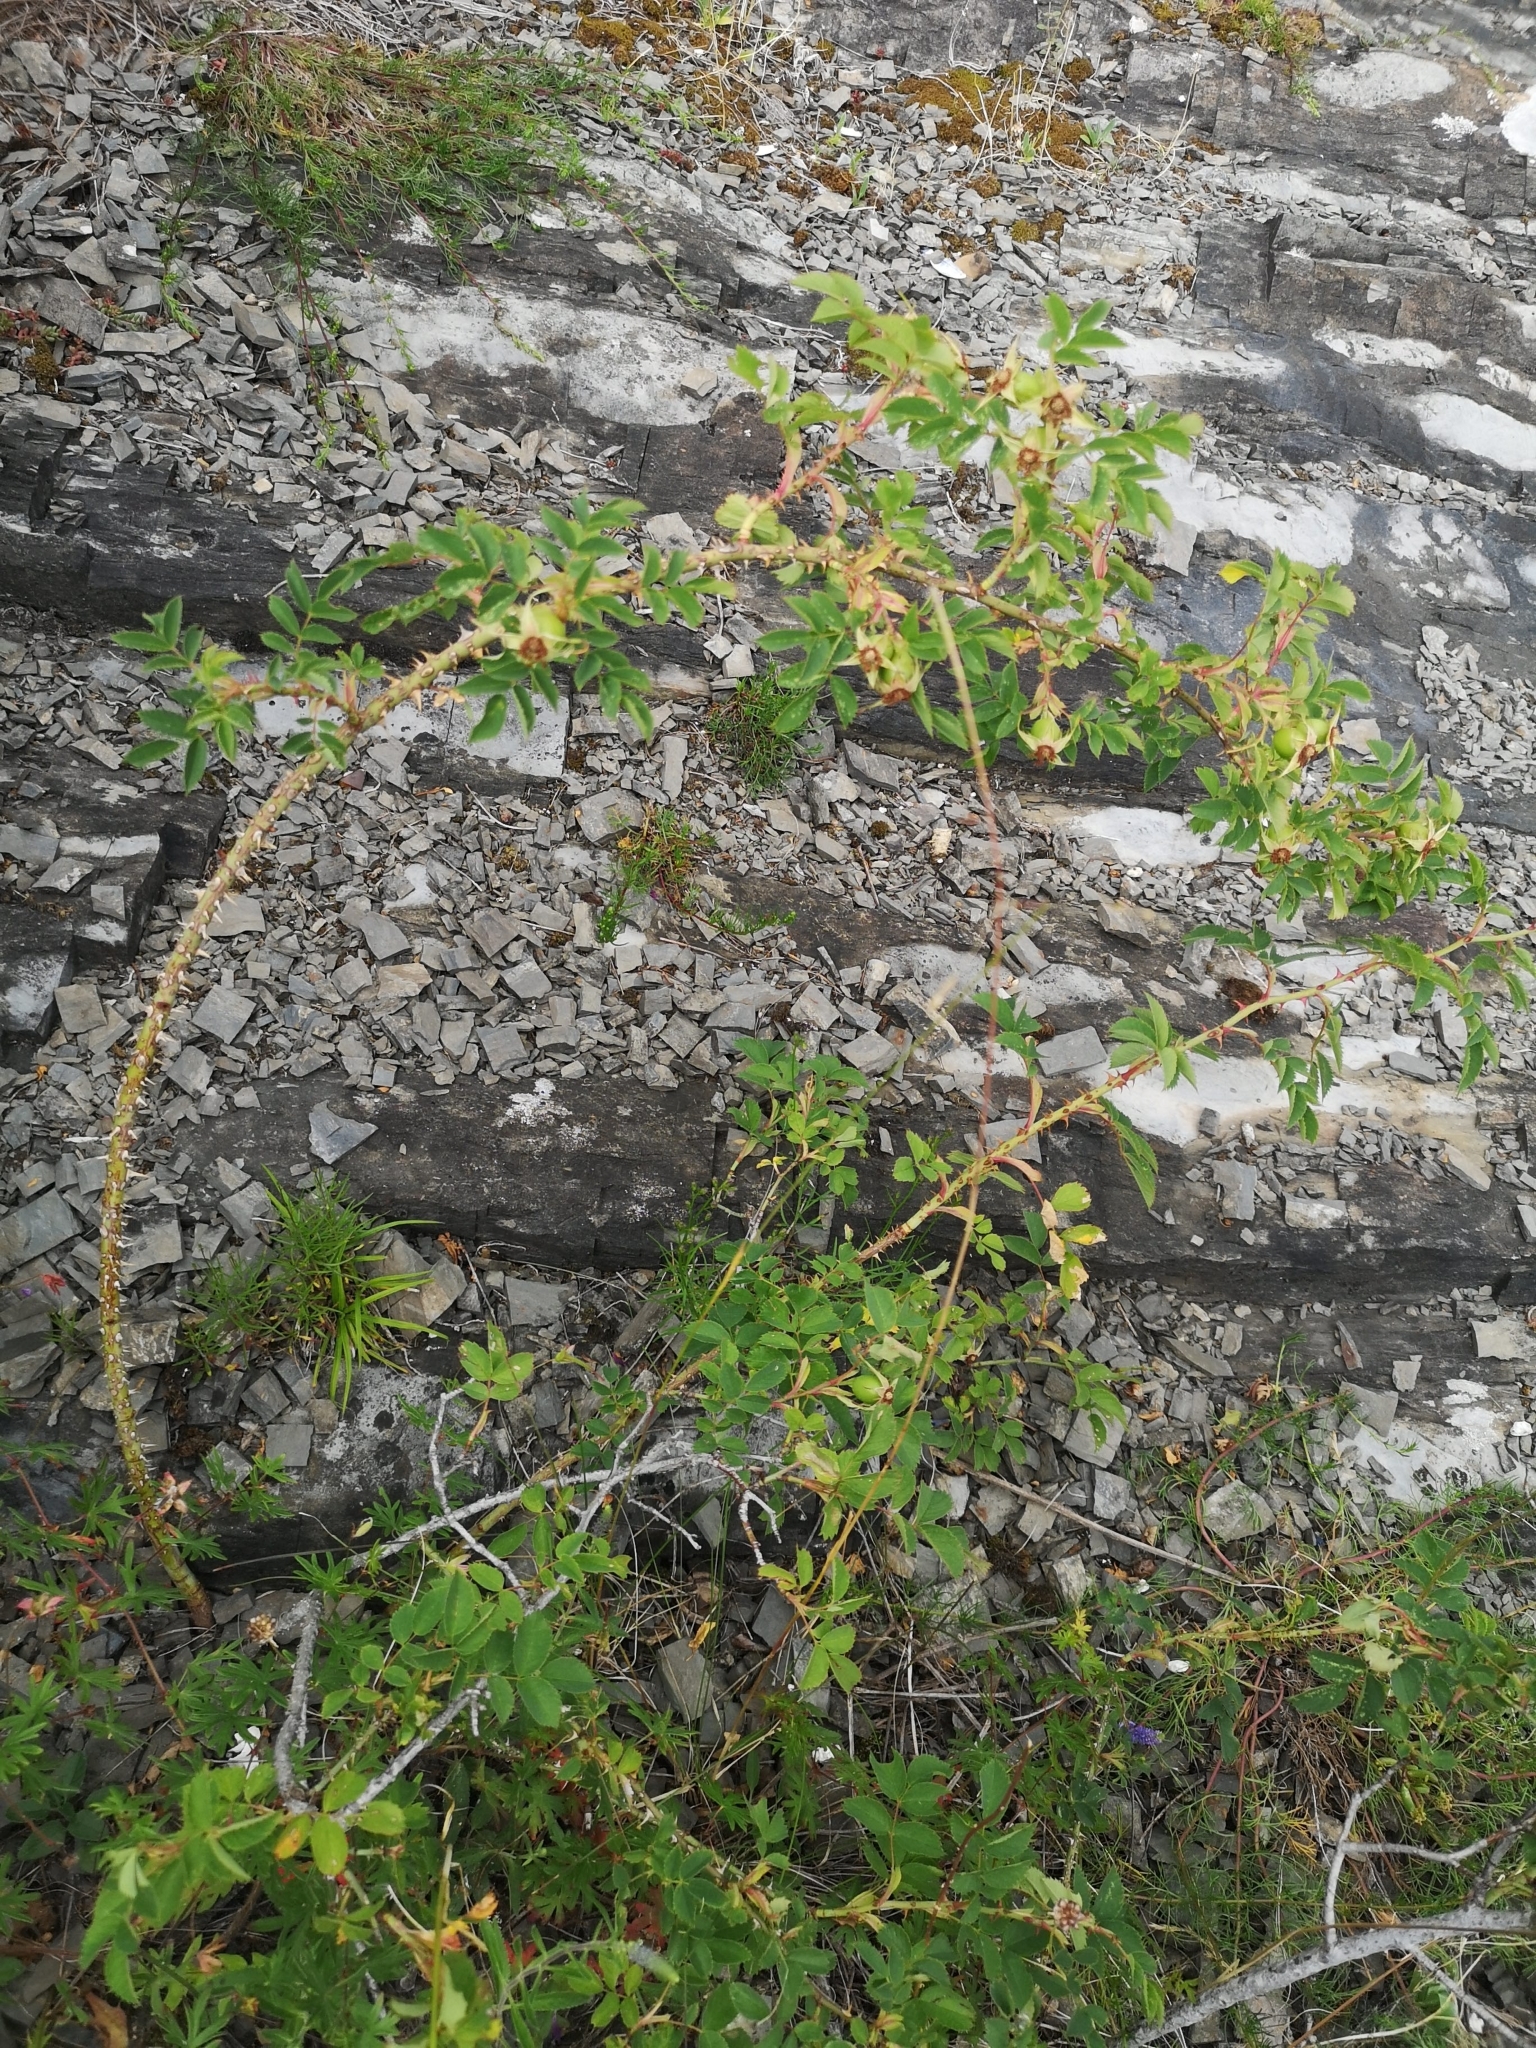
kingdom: Plantae
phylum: Tracheophyta
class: Magnoliopsida
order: Rosales
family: Rosaceae
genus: Rosa
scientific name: Rosa dumalis
